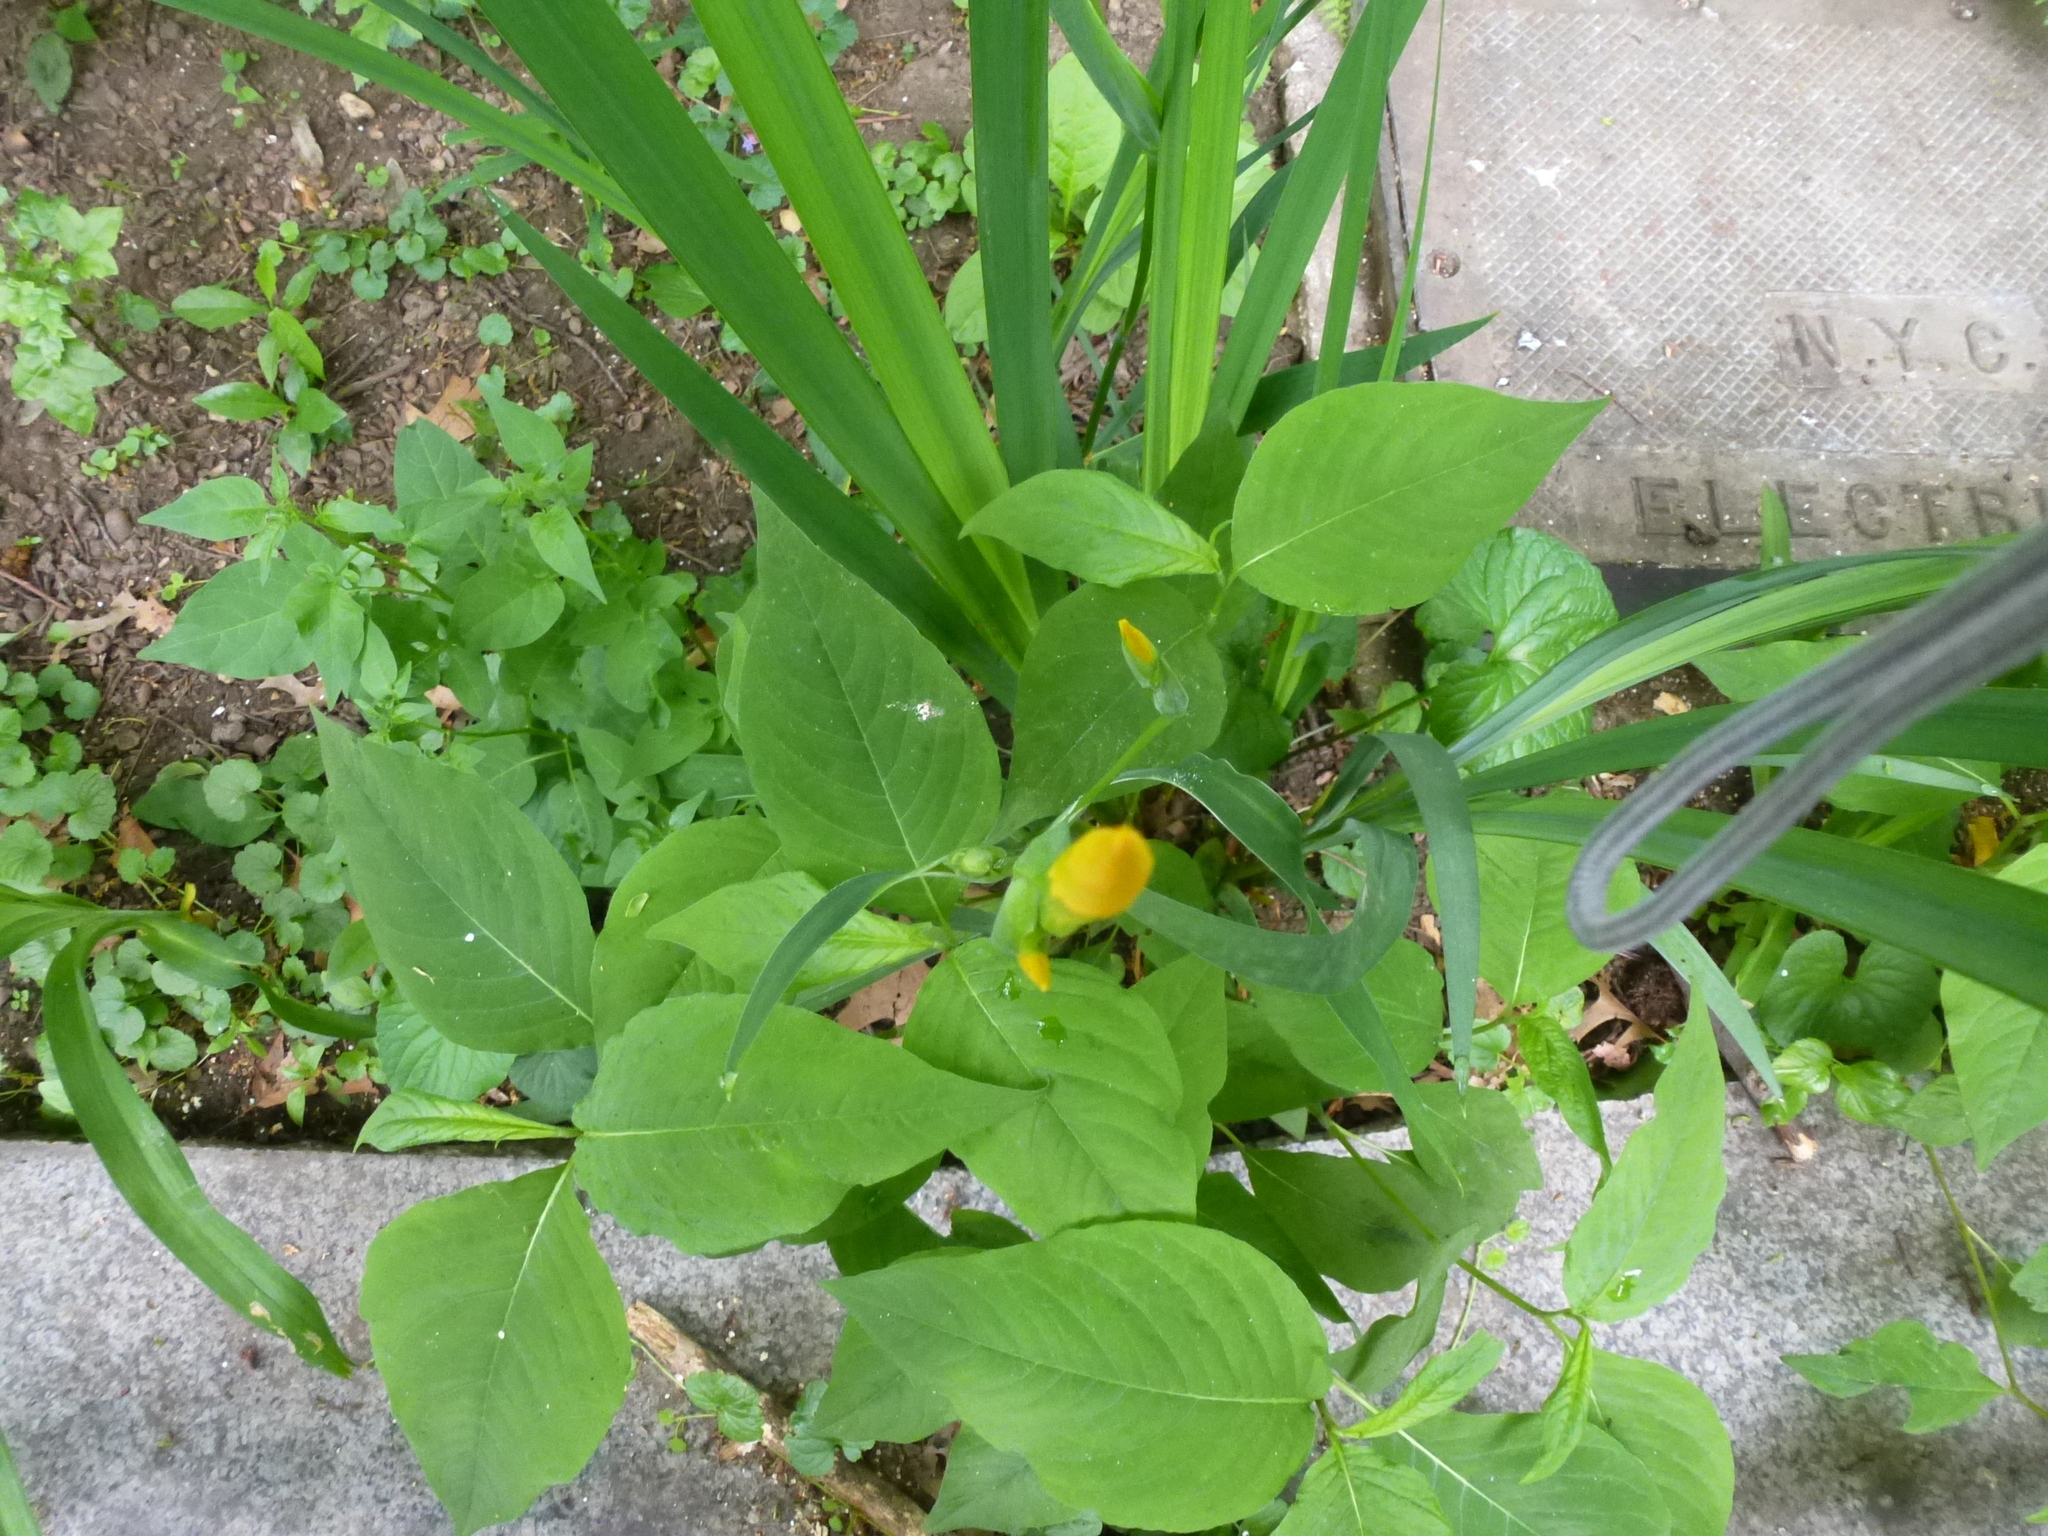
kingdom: Plantae
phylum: Tracheophyta
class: Liliopsida
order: Asparagales
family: Iridaceae
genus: Iris
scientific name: Iris pseudacorus
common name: Yellow flag
